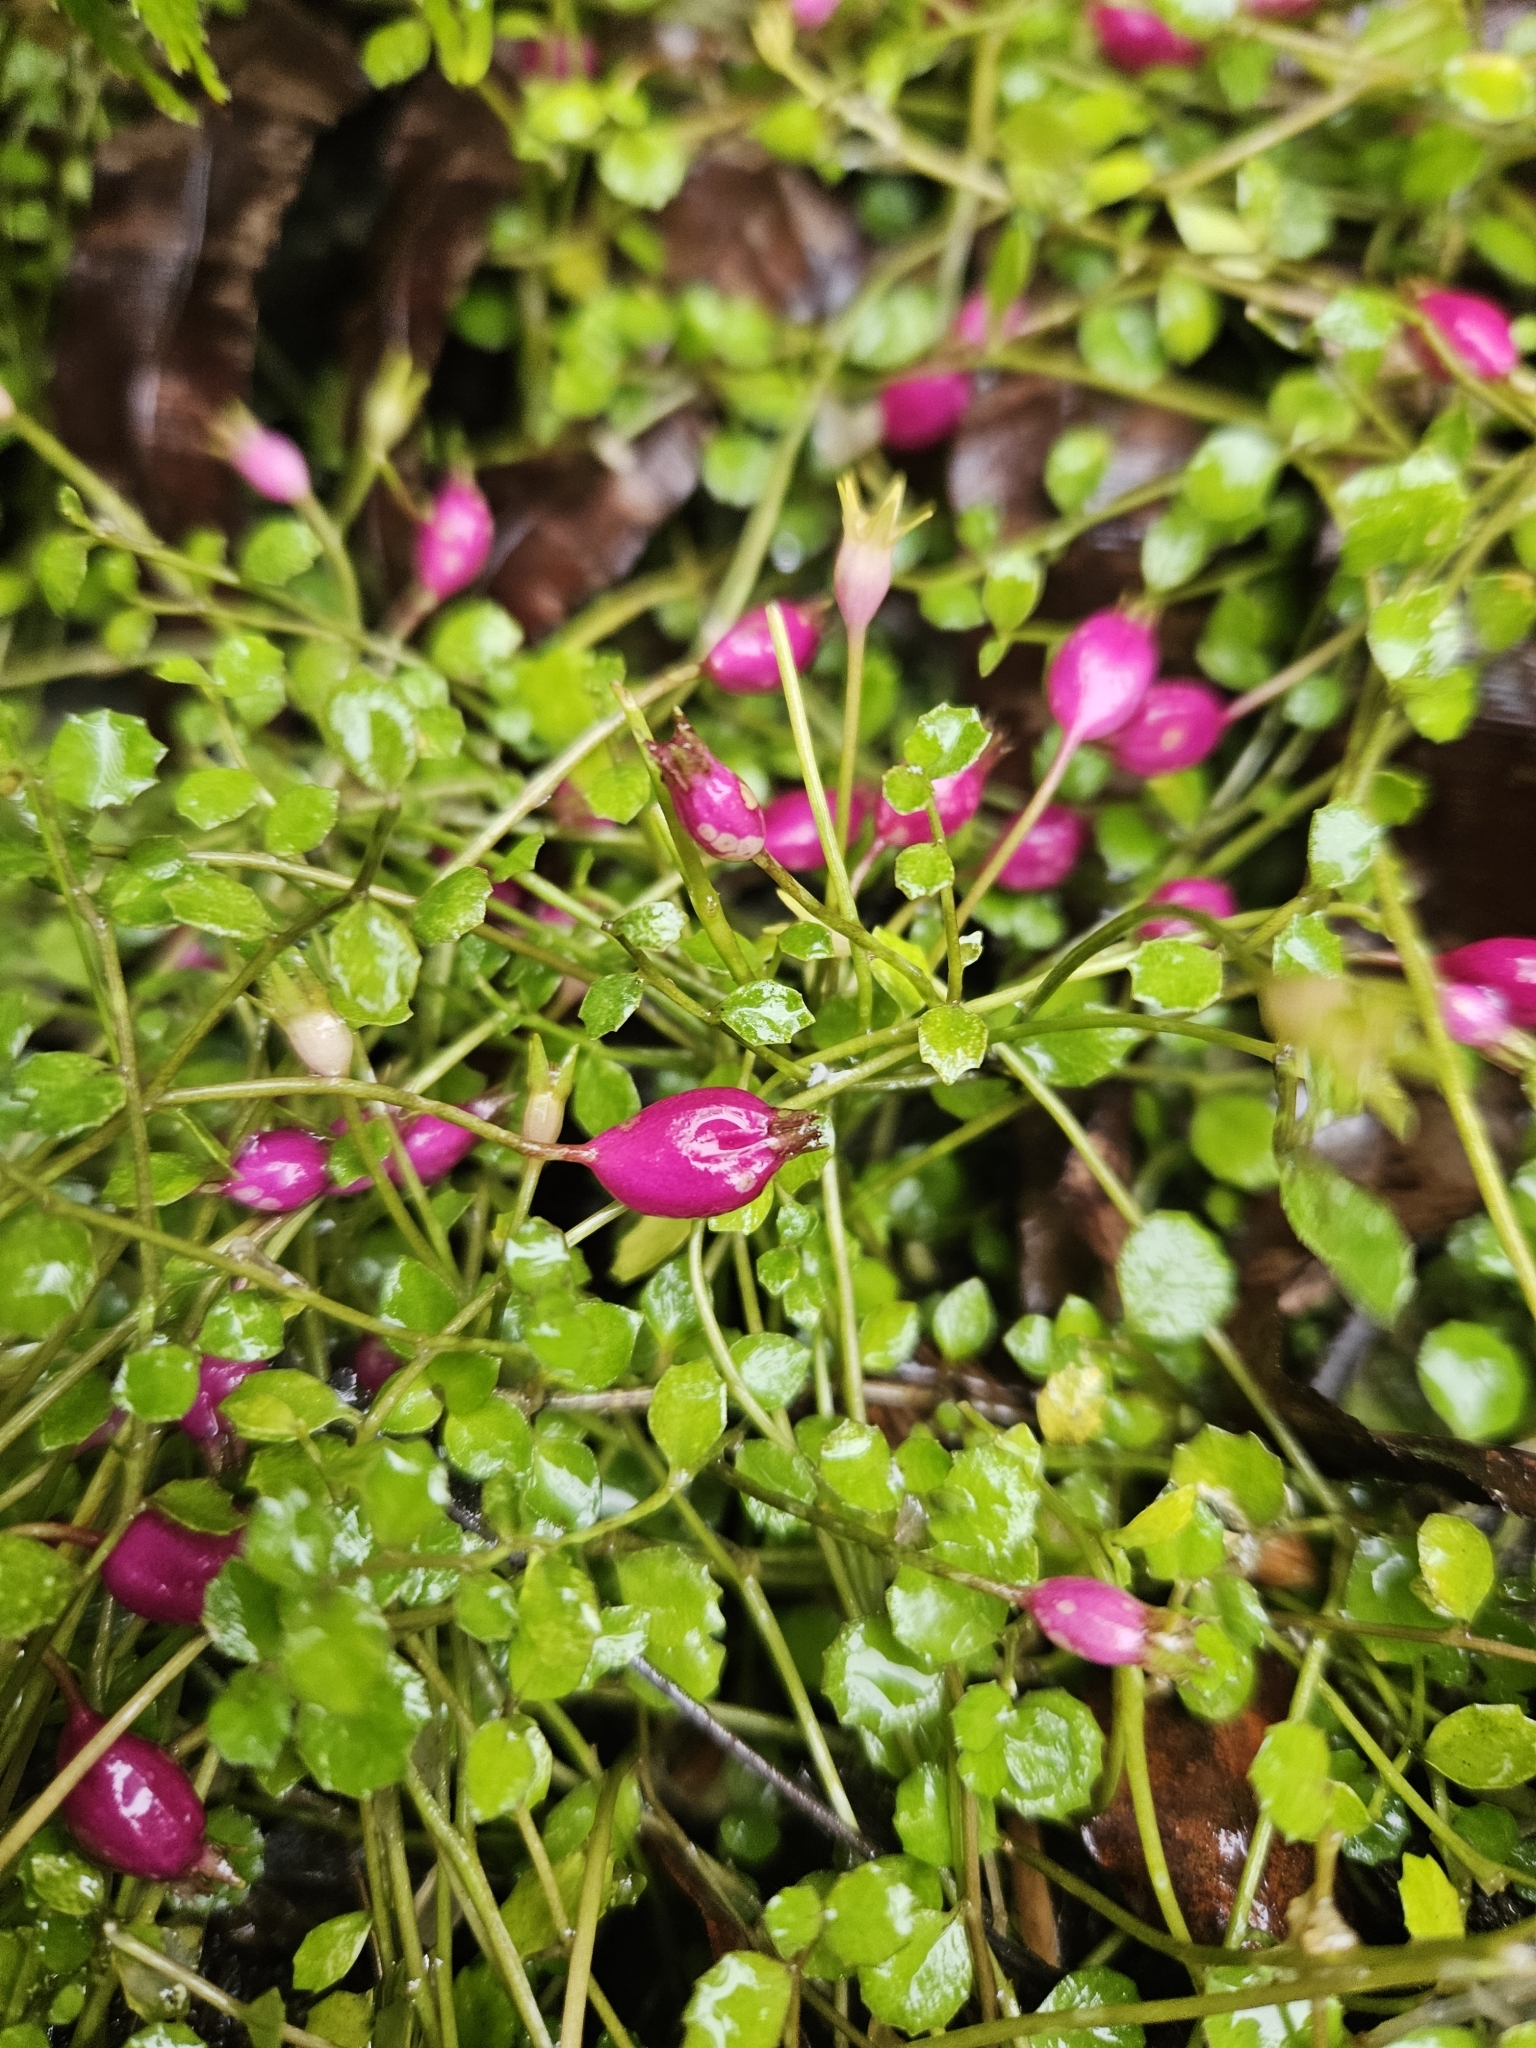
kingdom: Plantae
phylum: Tracheophyta
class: Magnoliopsida
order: Asterales
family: Campanulaceae
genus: Lobelia
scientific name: Lobelia angulata
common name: Lawn lobelia
